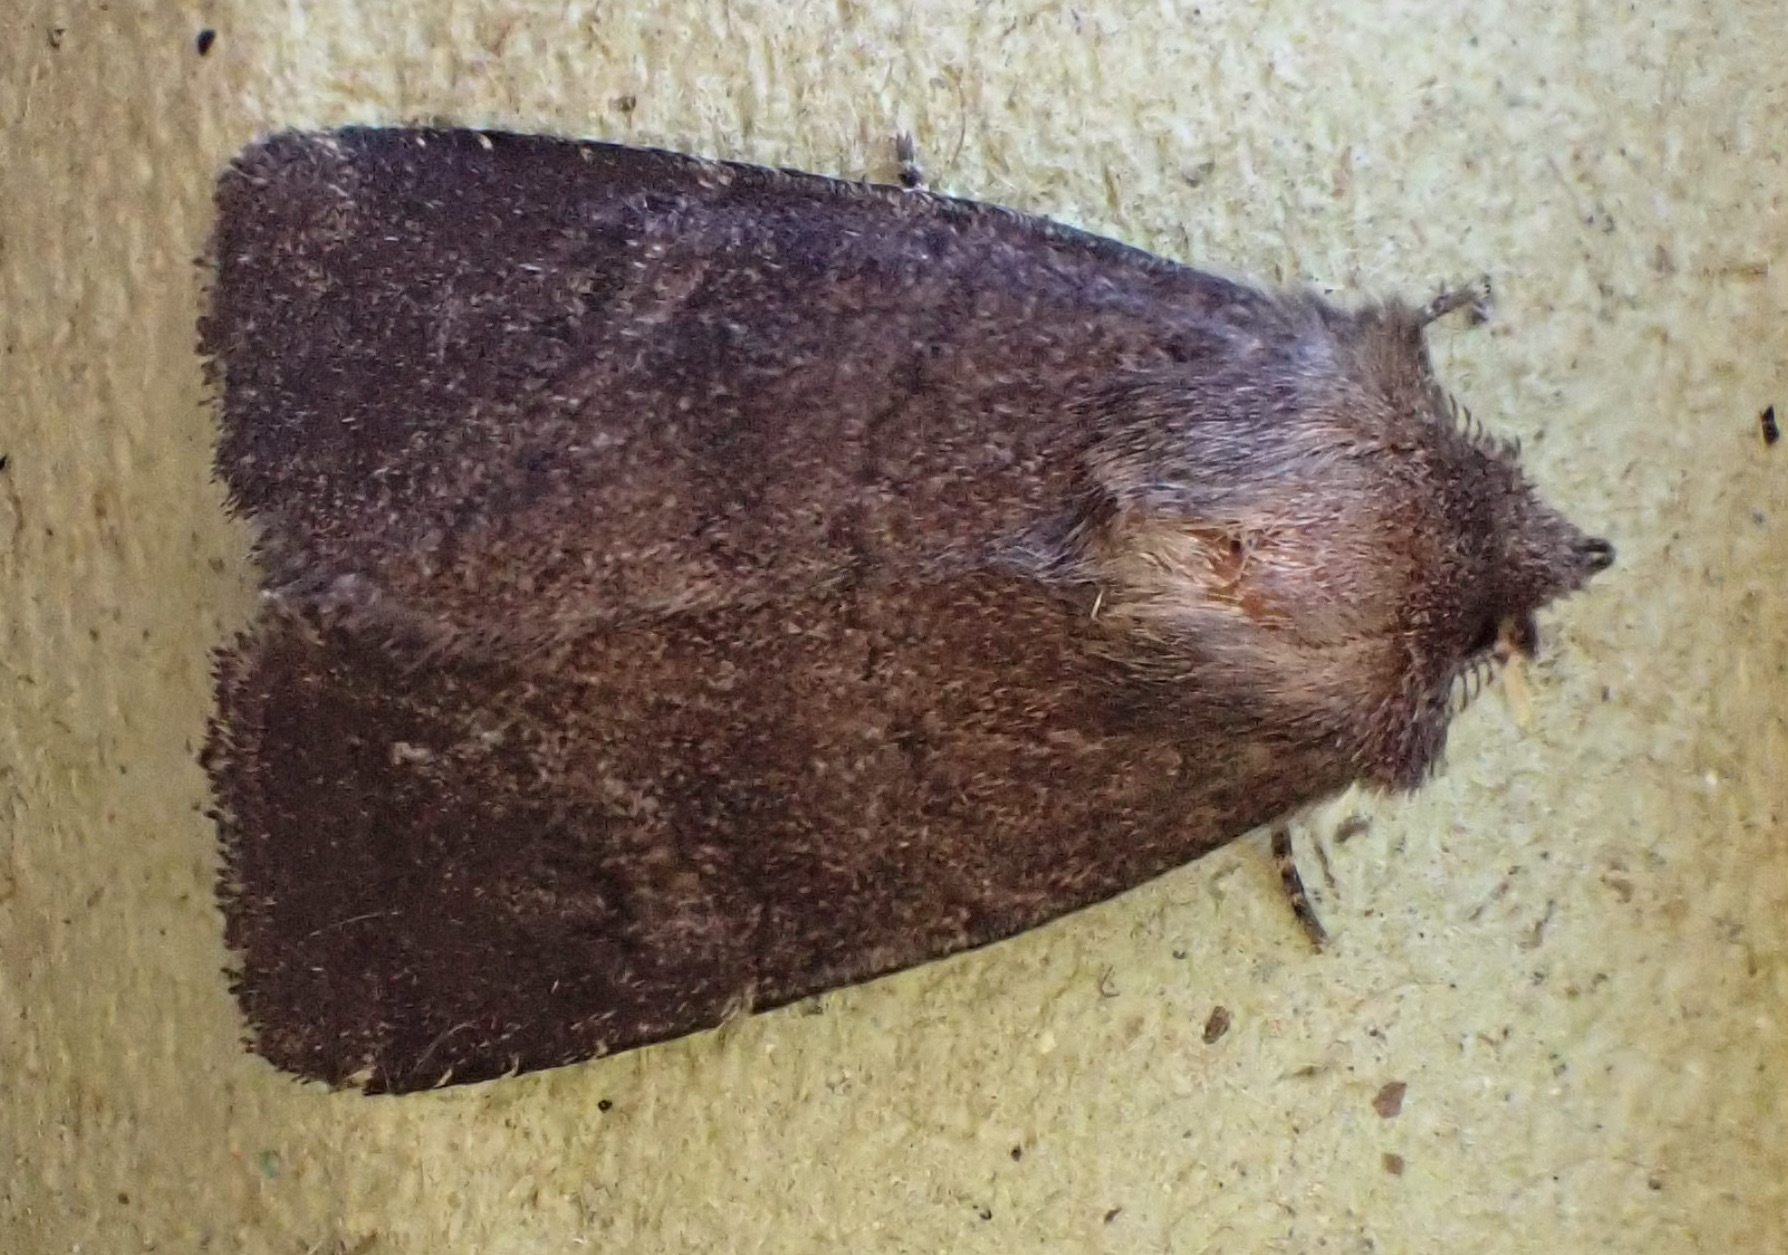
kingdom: Animalia
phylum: Arthropoda
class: Insecta
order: Lepidoptera
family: Noctuidae
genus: Charanyca
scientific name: Charanyca ferruginea
